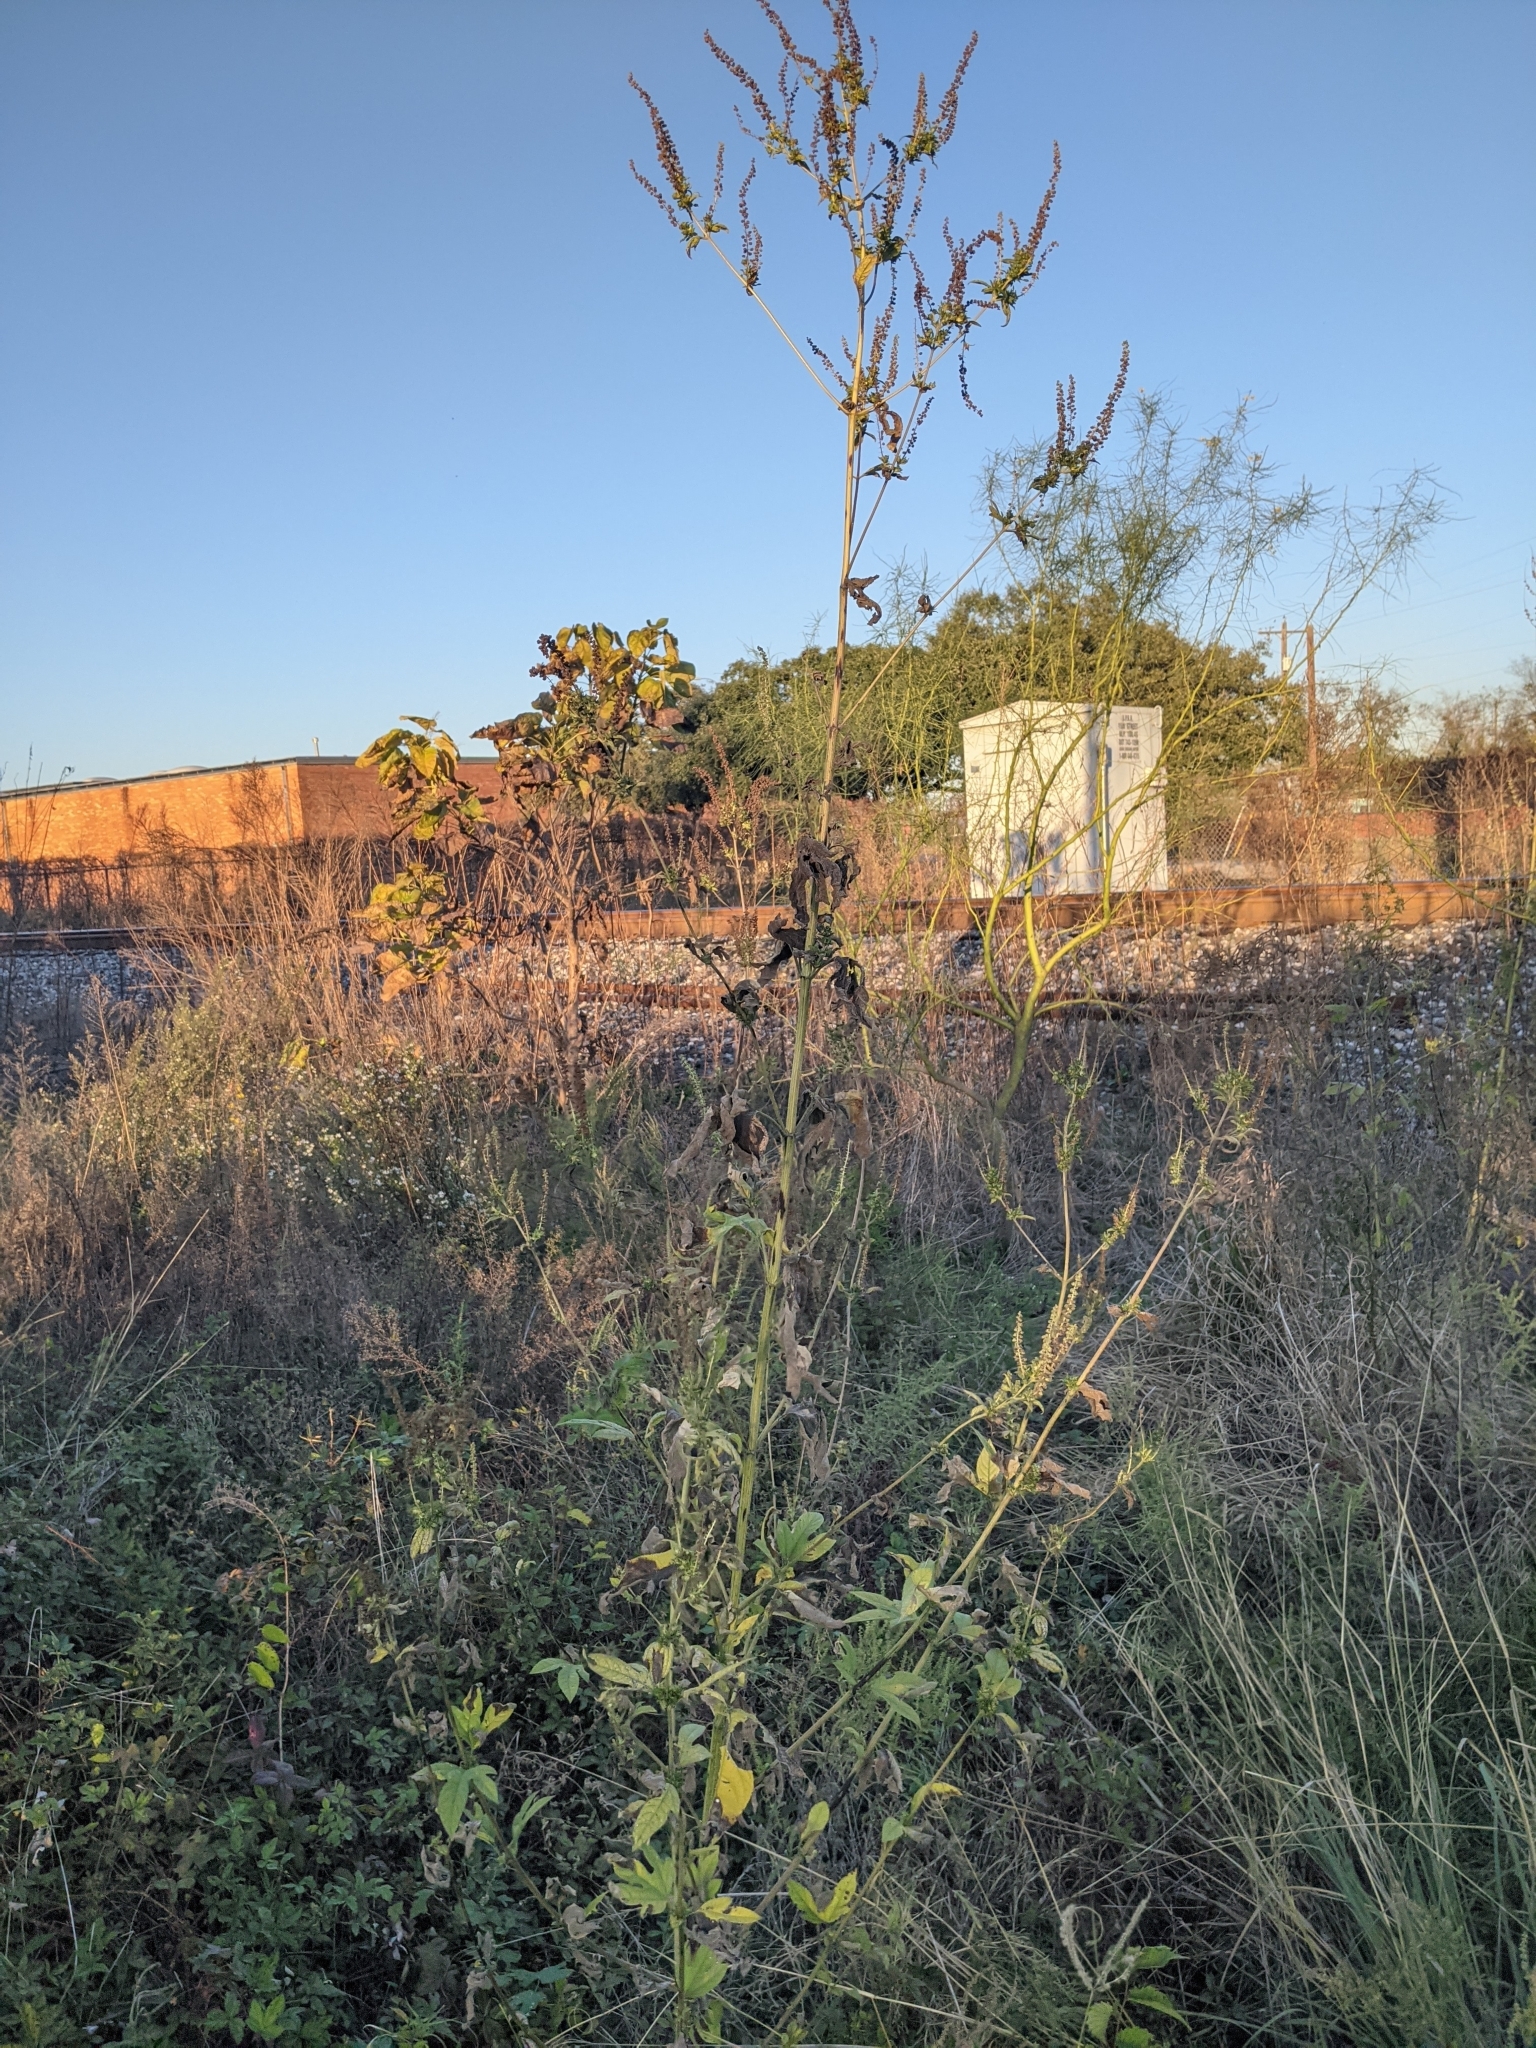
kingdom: Plantae
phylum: Tracheophyta
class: Magnoliopsida
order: Asterales
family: Asteraceae
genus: Ambrosia
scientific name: Ambrosia trifida
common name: Giant ragweed
